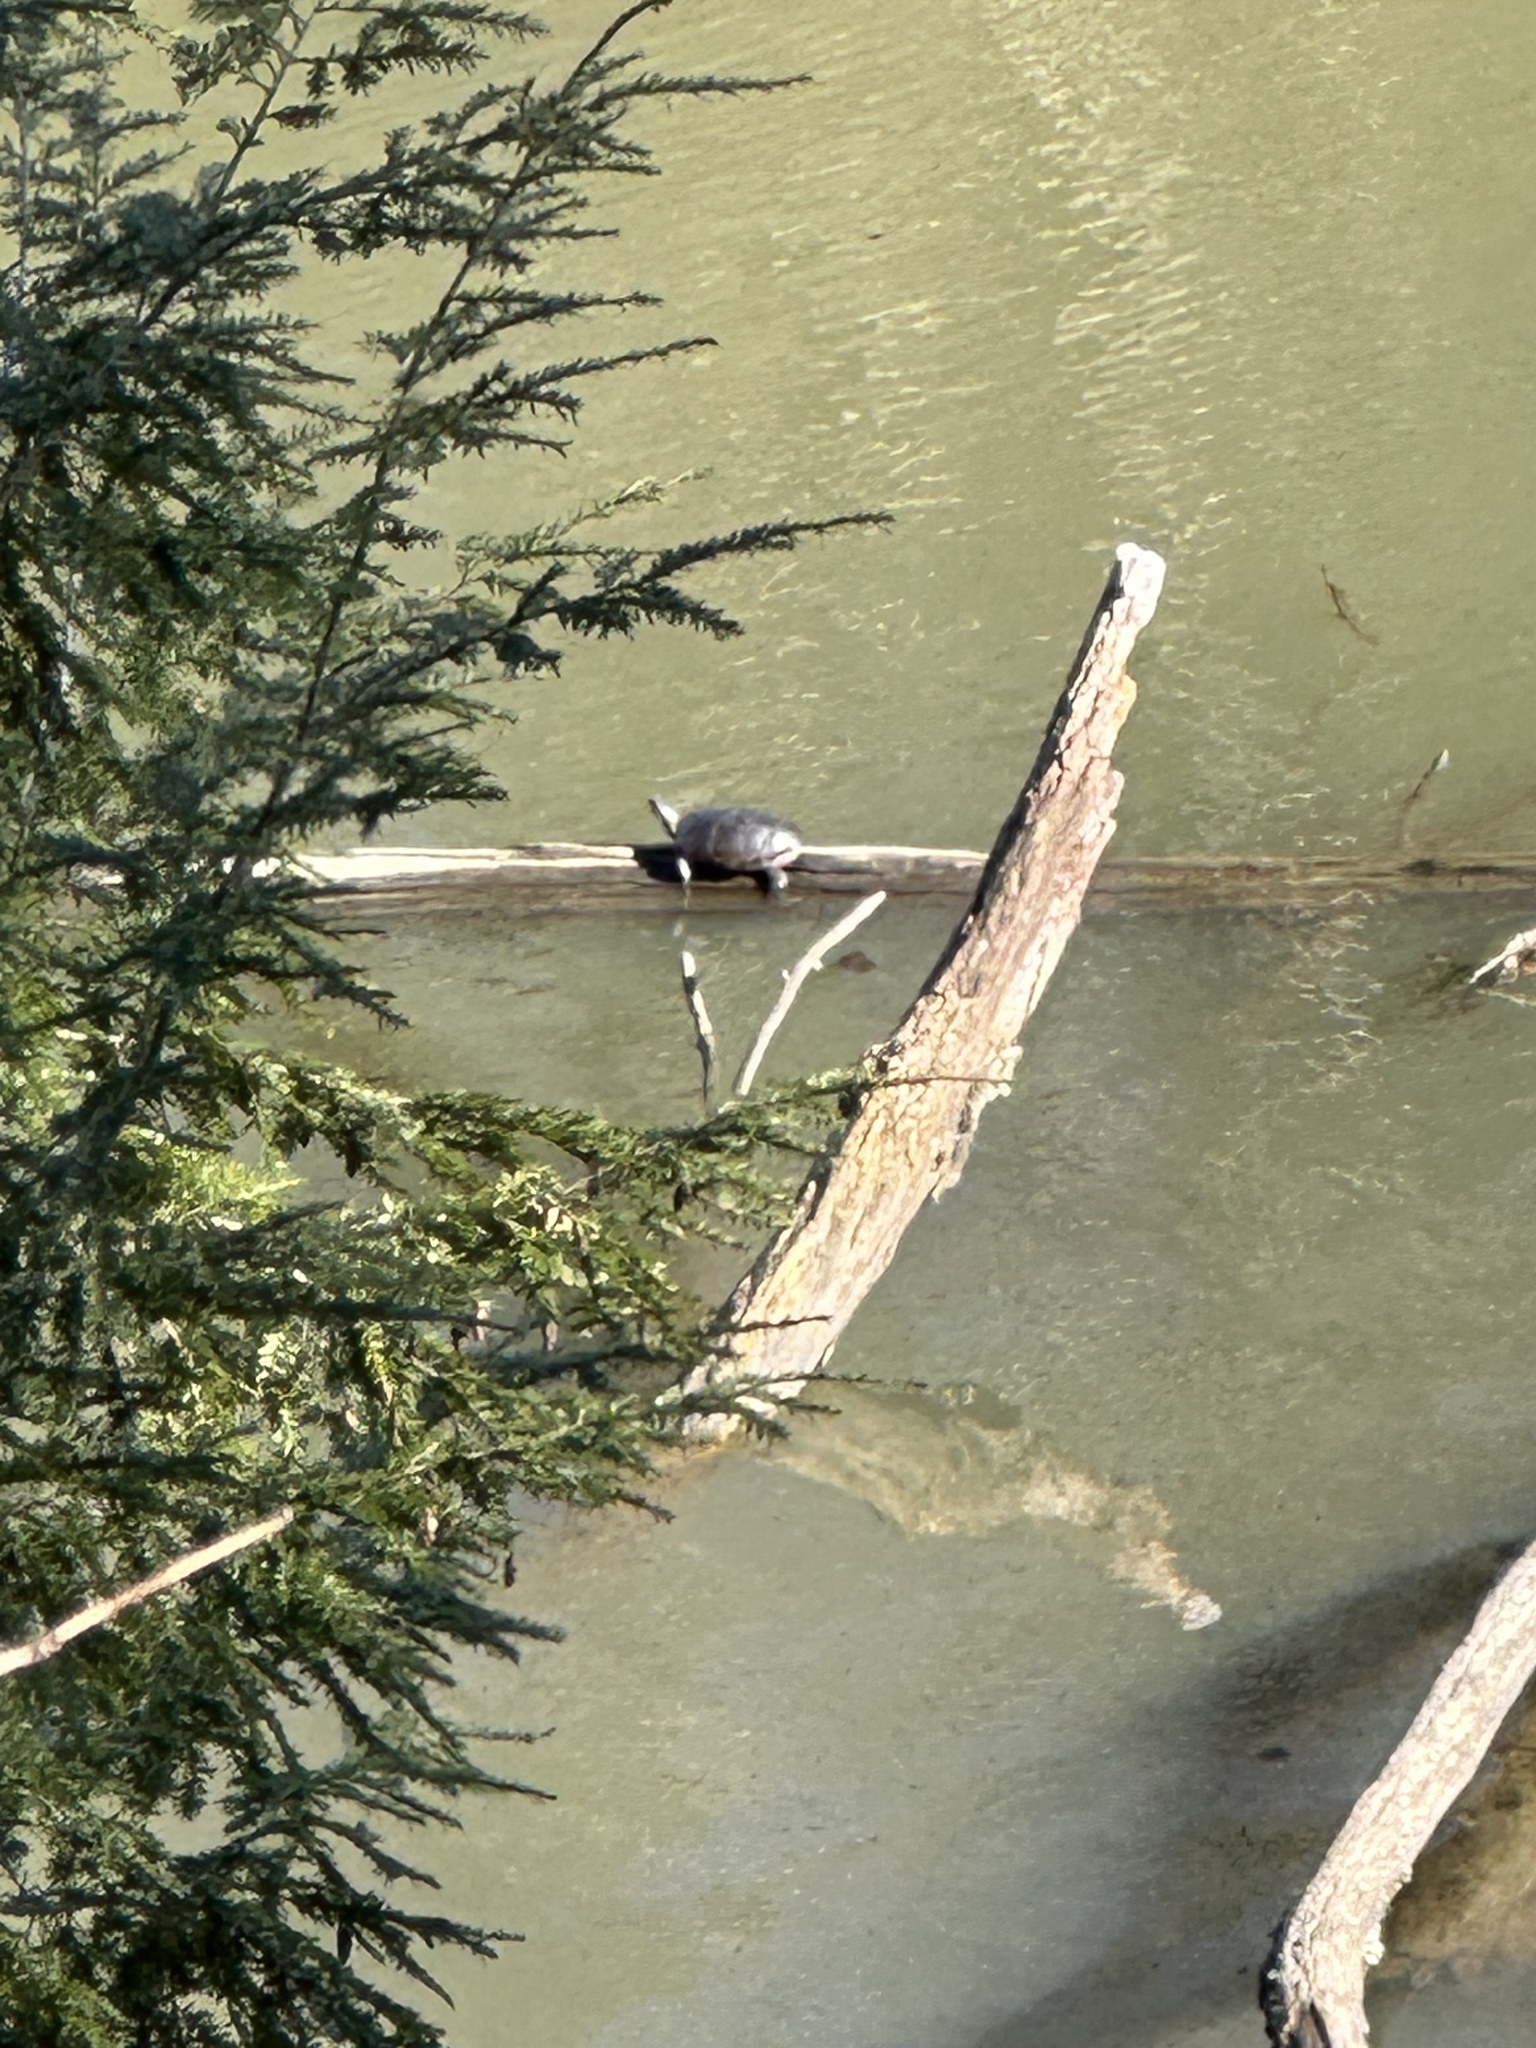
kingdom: Animalia
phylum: Chordata
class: Testudines
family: Emydidae
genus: Chrysemys
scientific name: Chrysemys picta
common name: Painted turtle
